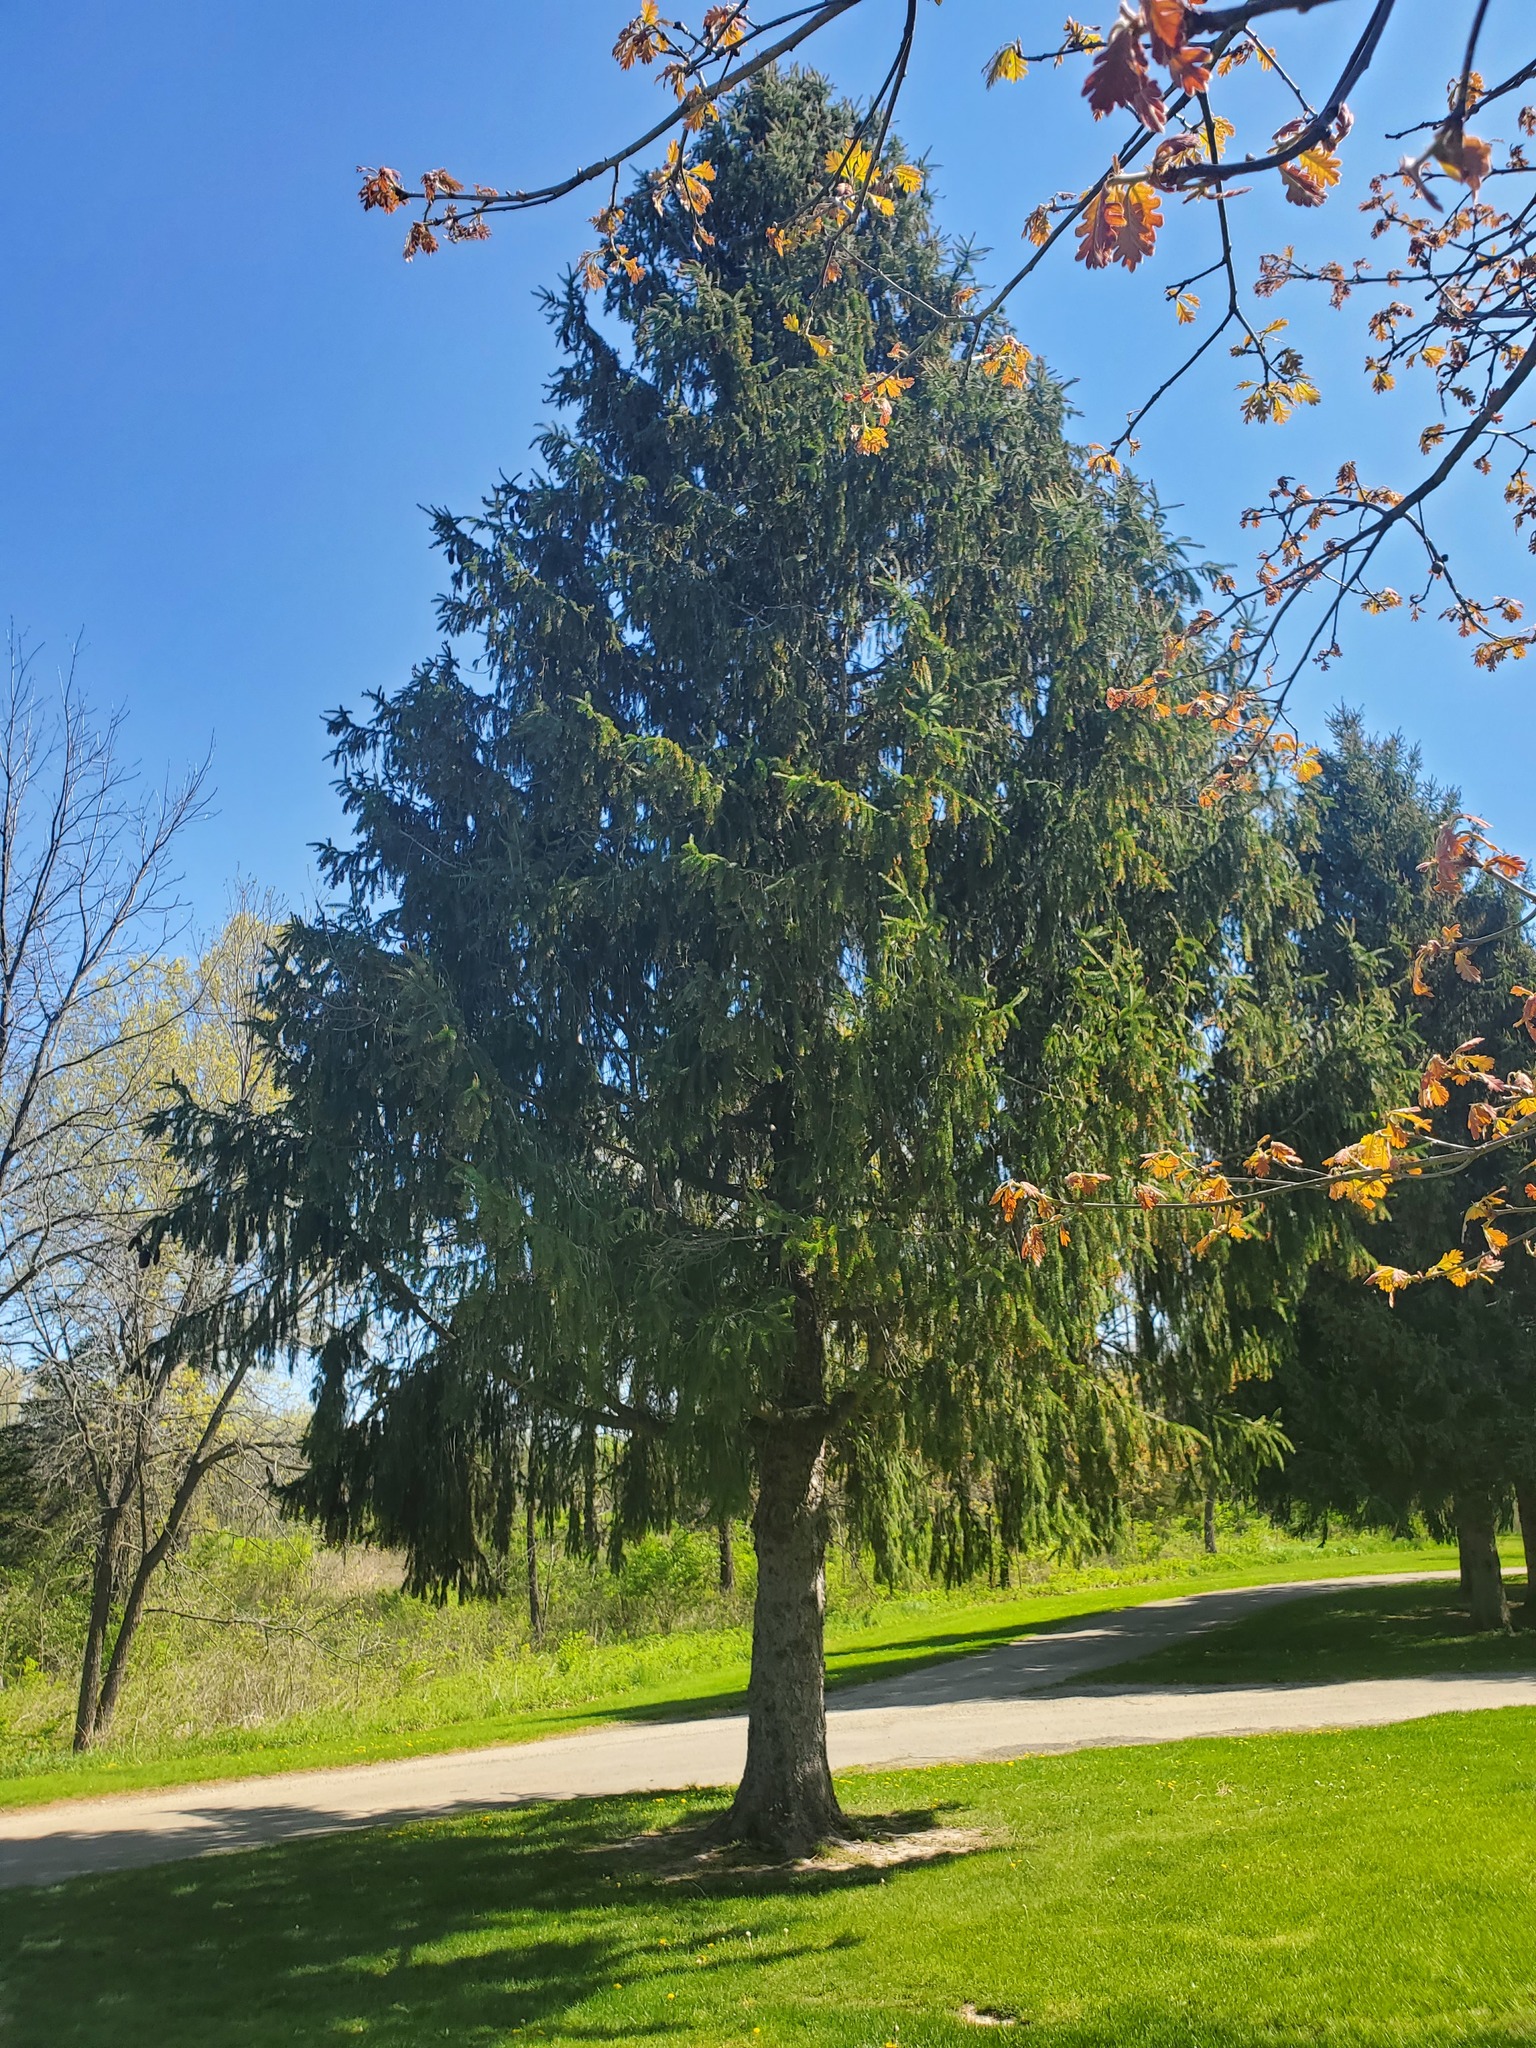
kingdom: Plantae
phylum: Tracheophyta
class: Pinopsida
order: Pinales
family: Pinaceae
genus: Picea
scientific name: Picea abies
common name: Norway spruce
